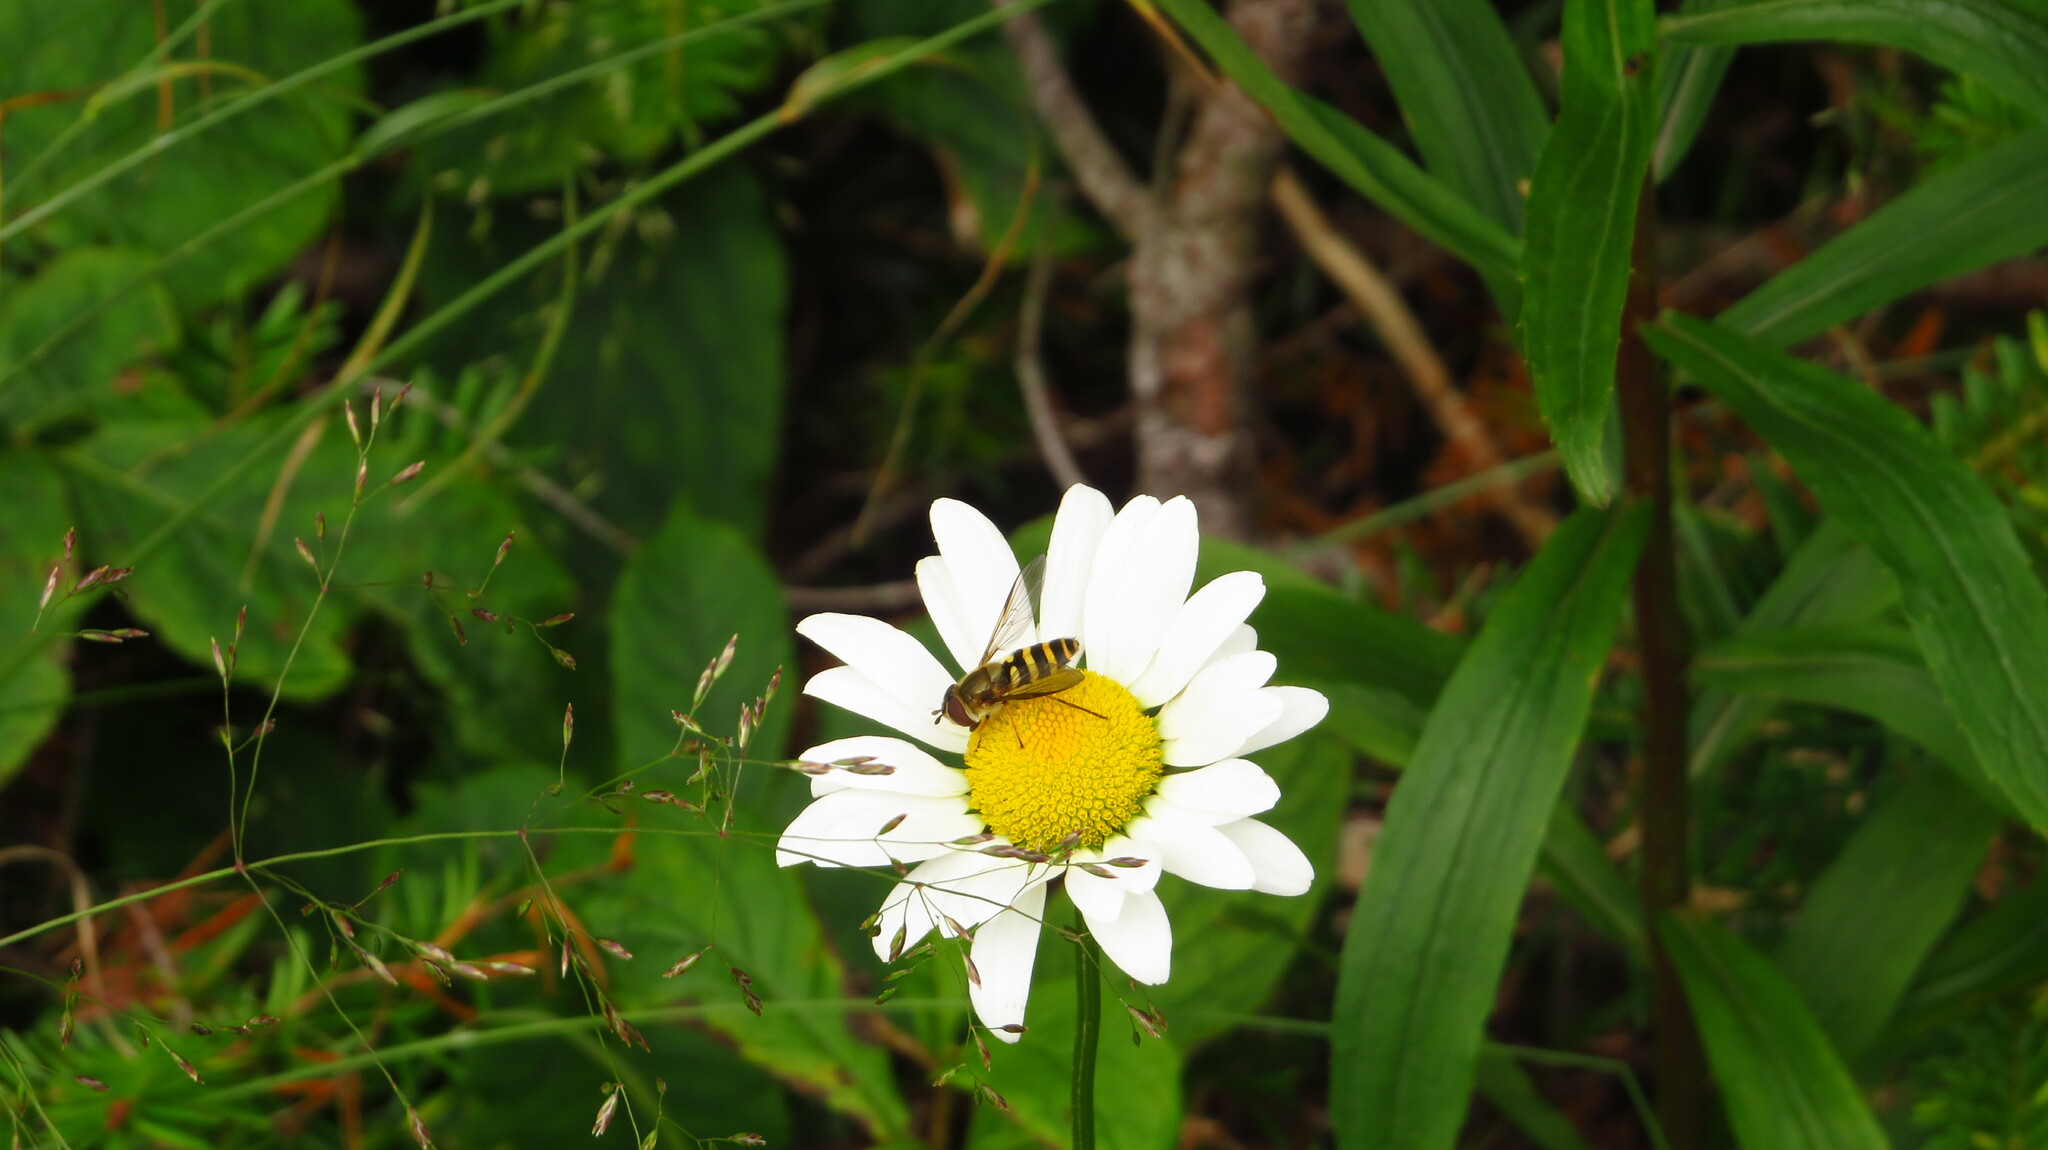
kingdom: Plantae
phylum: Tracheophyta
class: Magnoliopsida
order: Asterales
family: Asteraceae
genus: Leucanthemum
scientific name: Leucanthemum vulgare
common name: Oxeye daisy
